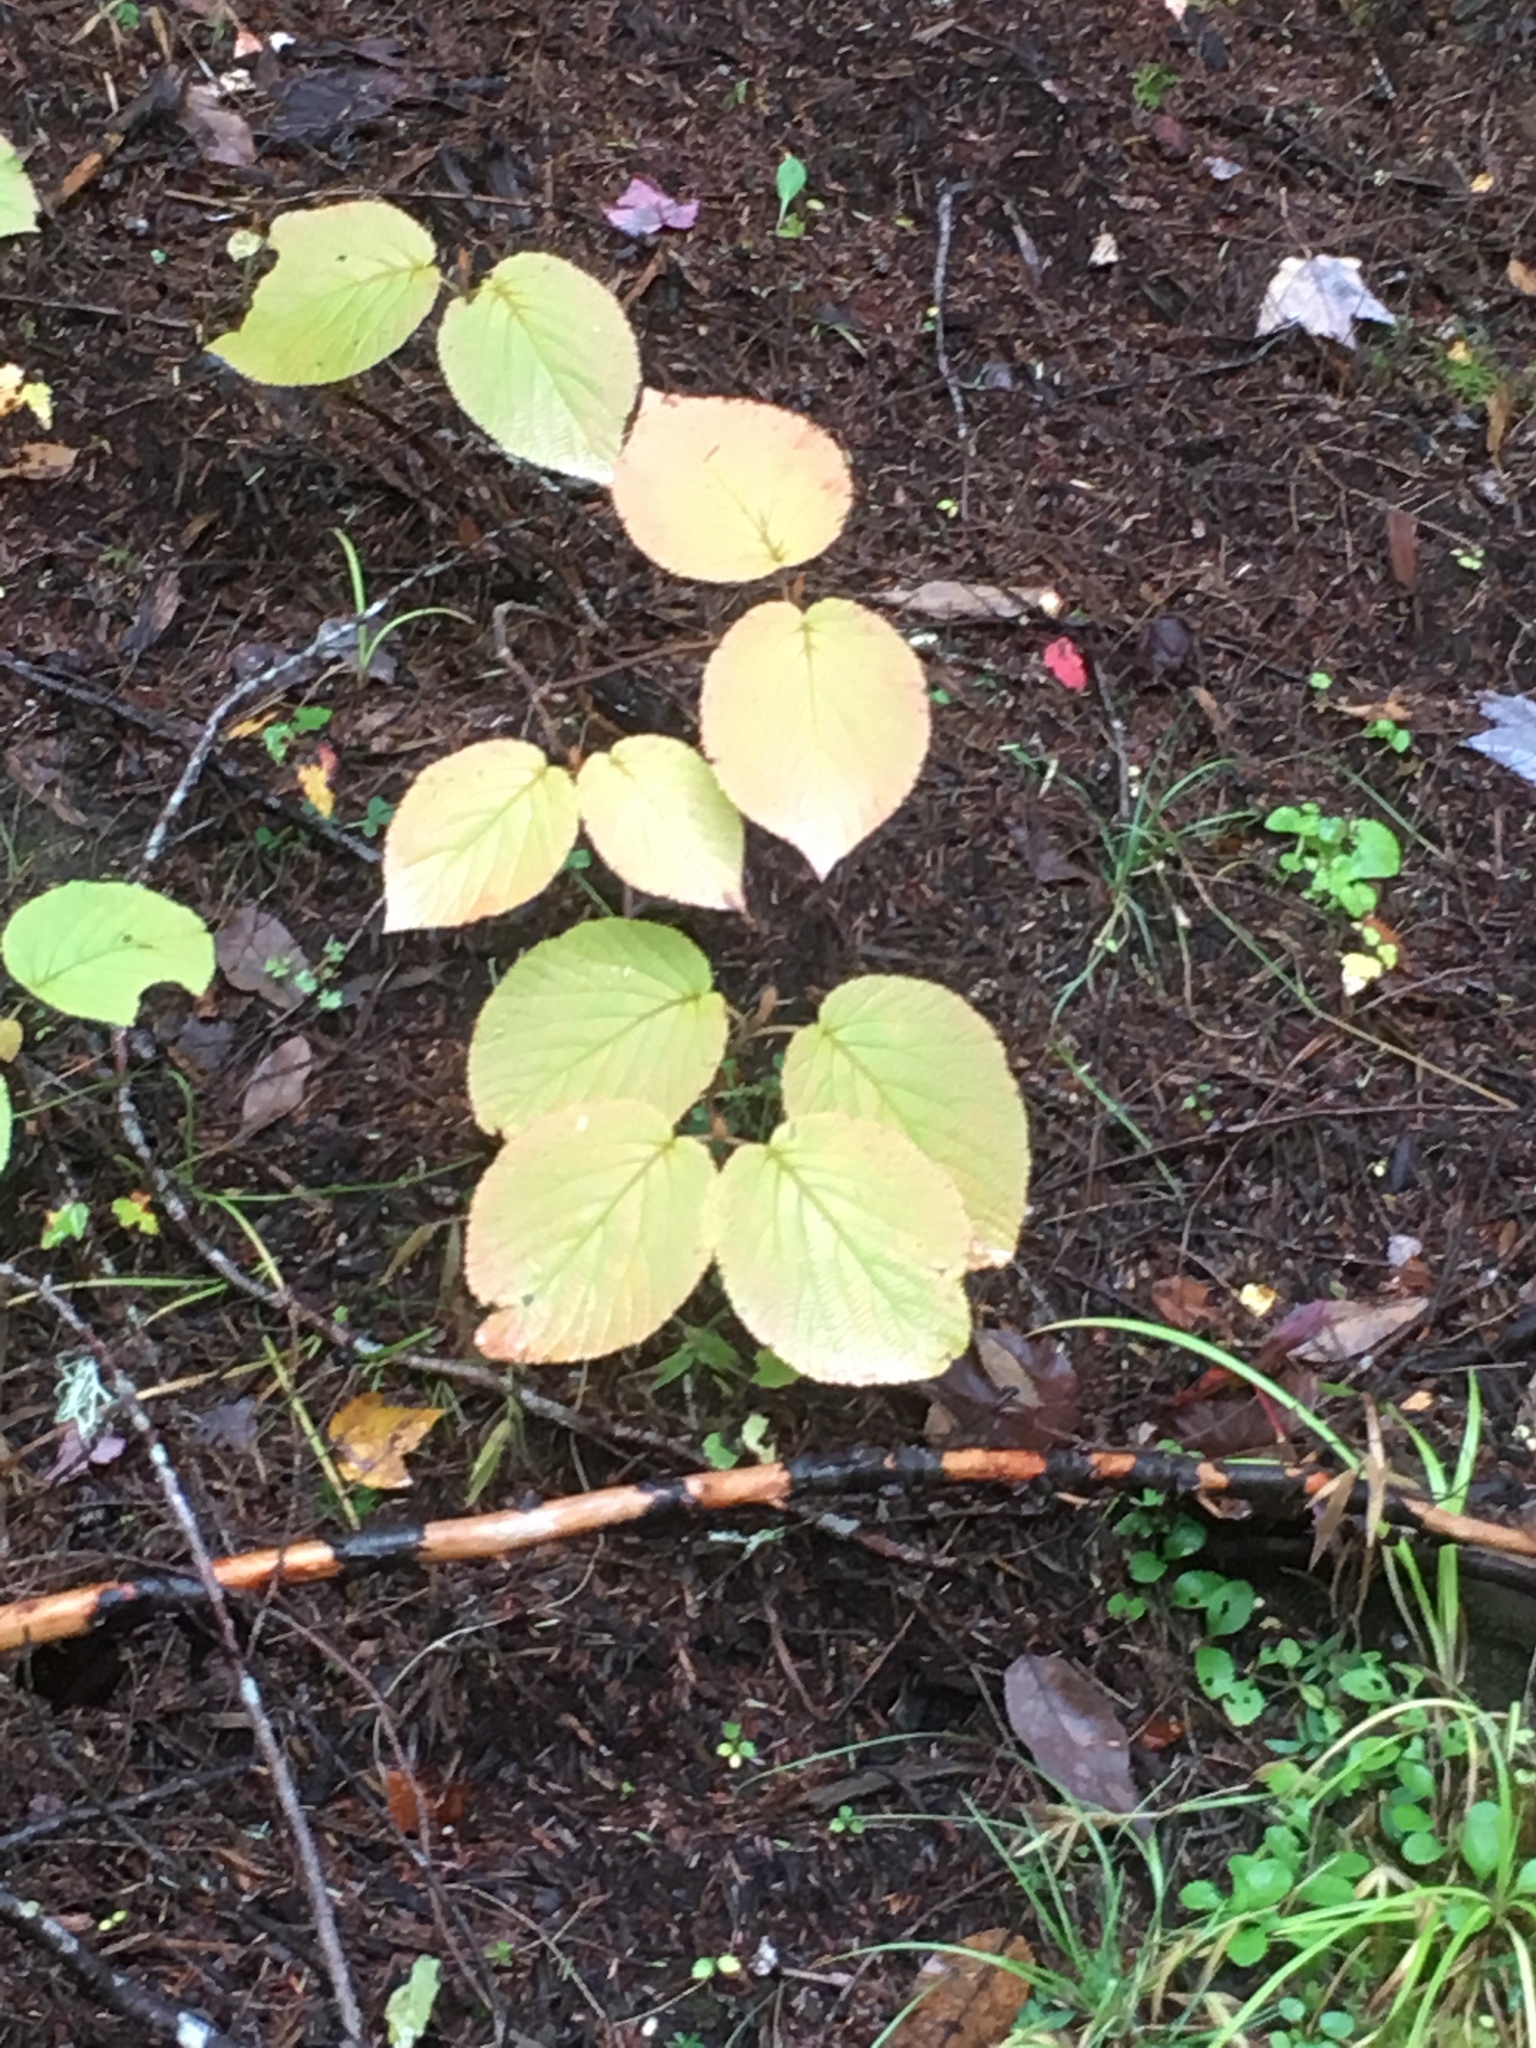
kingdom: Plantae
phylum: Tracheophyta
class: Magnoliopsida
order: Dipsacales
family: Viburnaceae
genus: Viburnum
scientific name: Viburnum lantanoides
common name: Hobblebush
